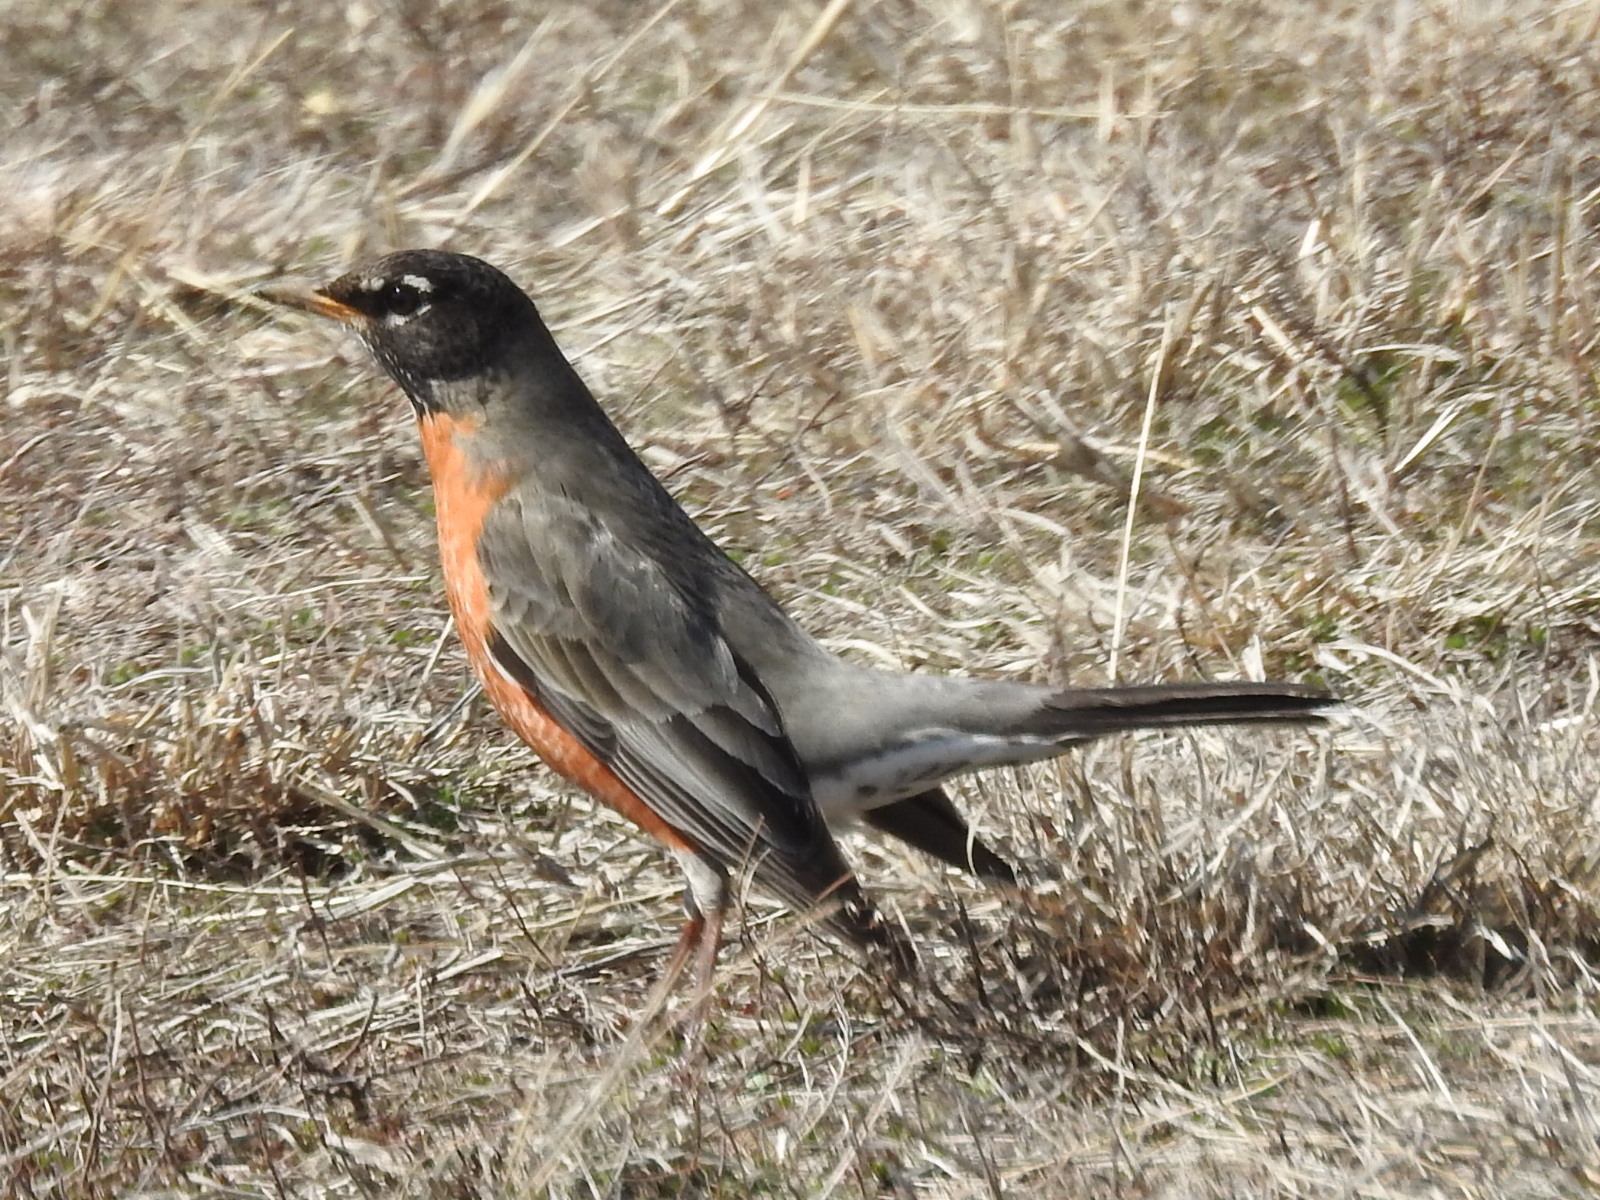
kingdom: Animalia
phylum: Chordata
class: Aves
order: Passeriformes
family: Turdidae
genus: Turdus
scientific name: Turdus migratorius
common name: American robin
